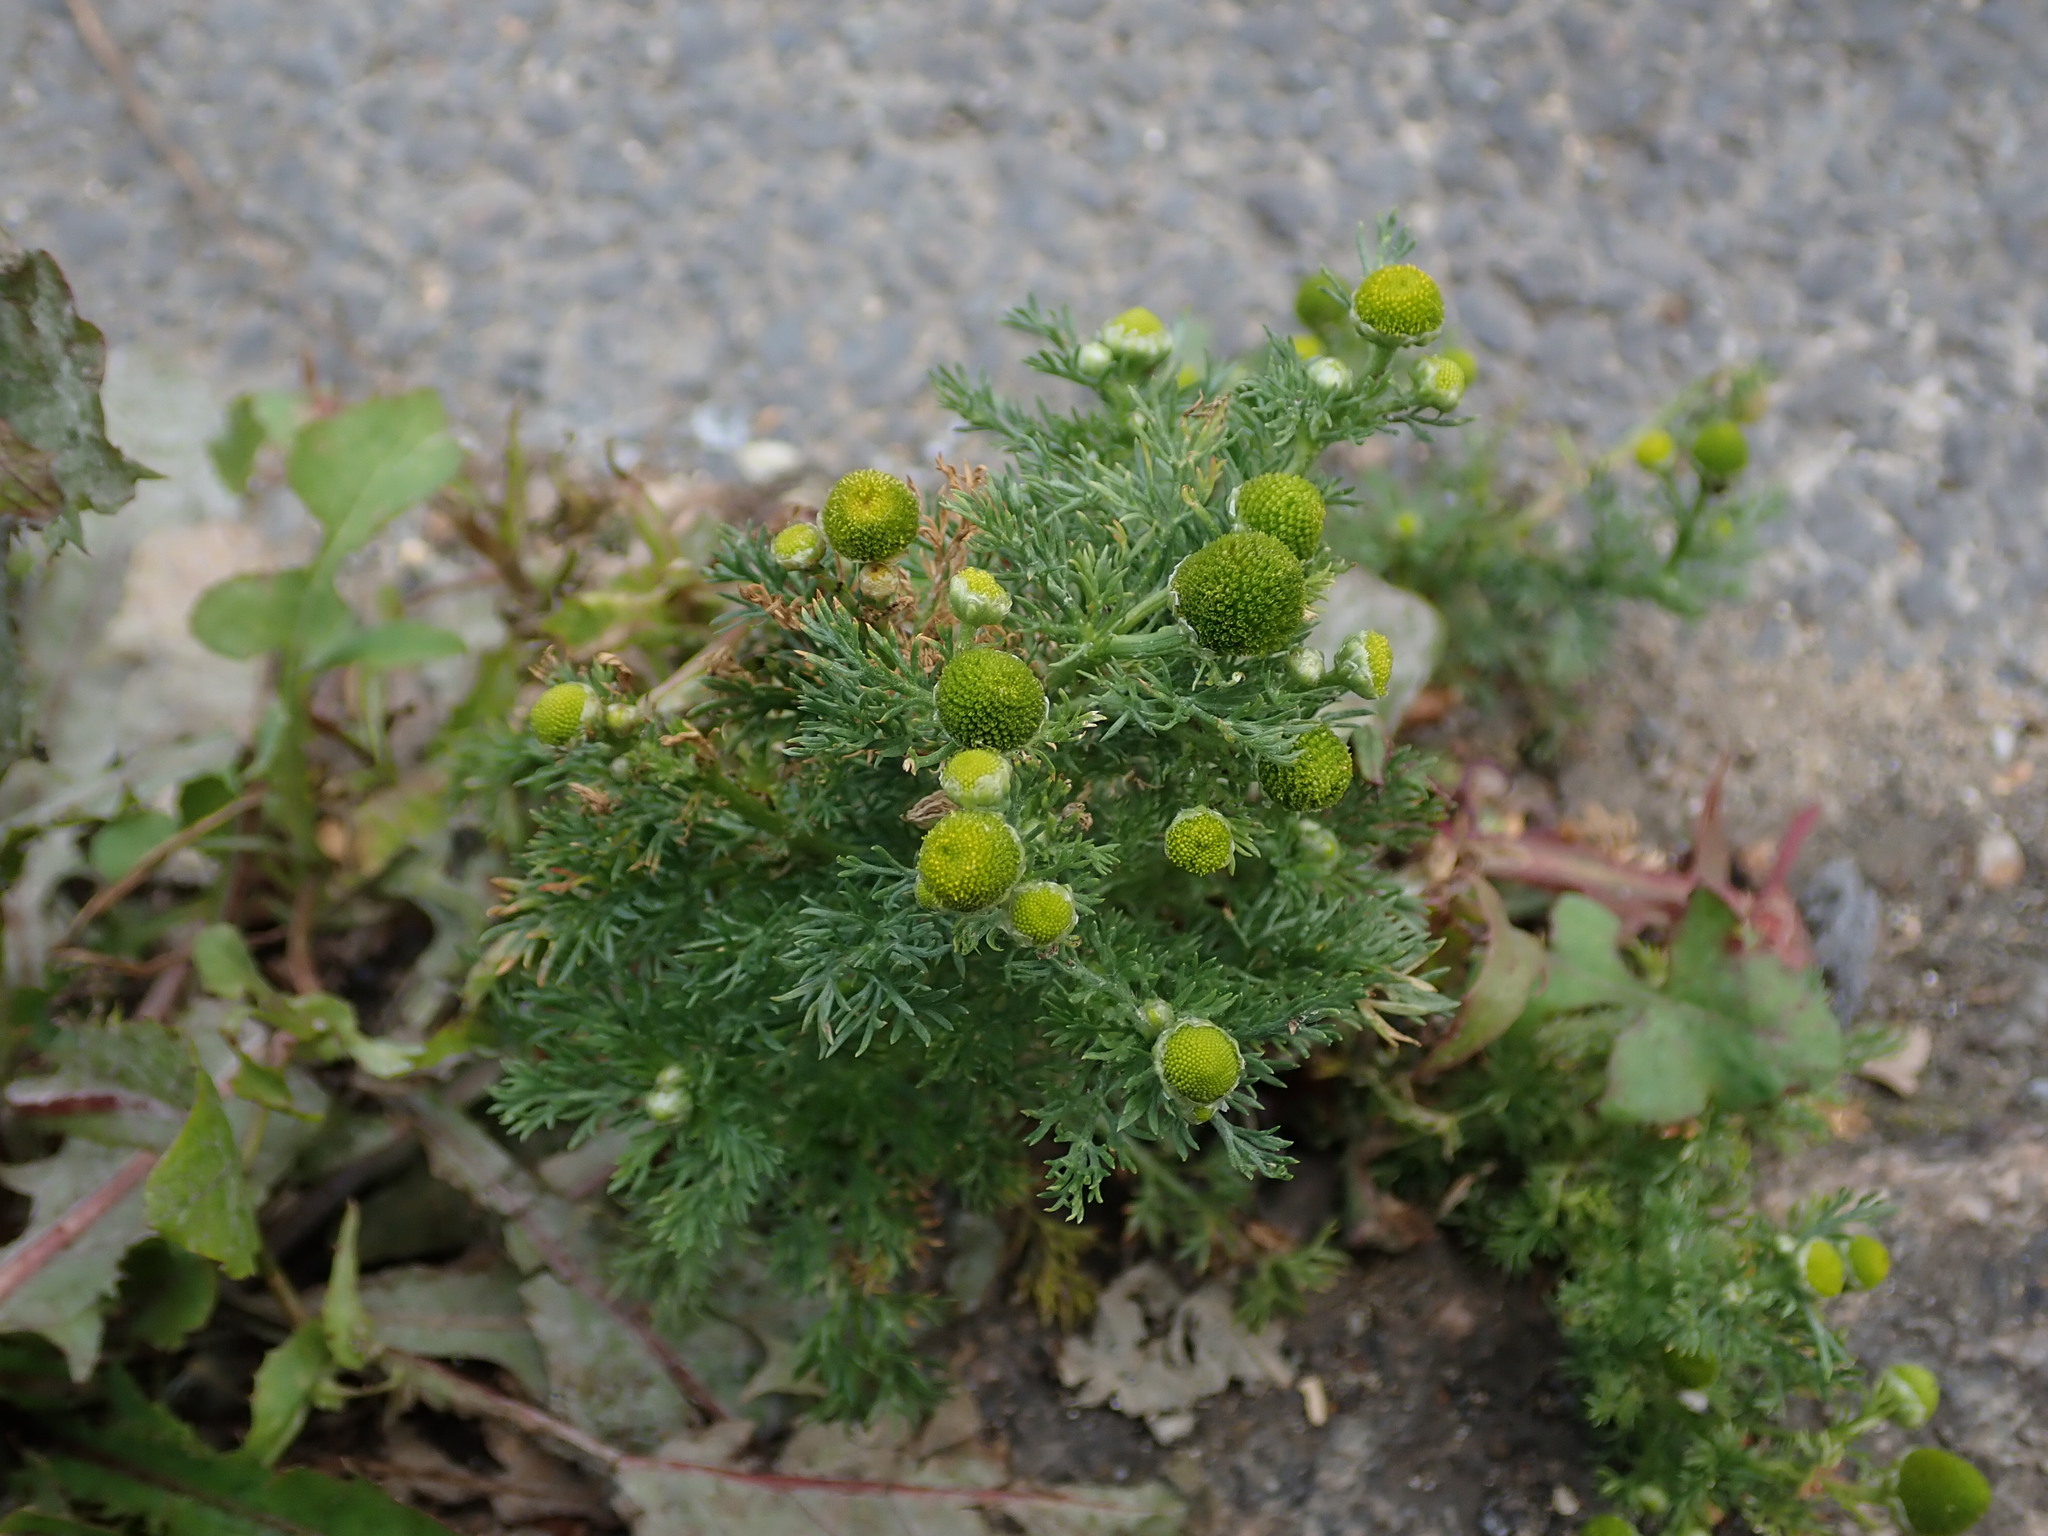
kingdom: Plantae
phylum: Tracheophyta
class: Magnoliopsida
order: Asterales
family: Asteraceae
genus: Matricaria
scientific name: Matricaria discoidea
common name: Disc mayweed
